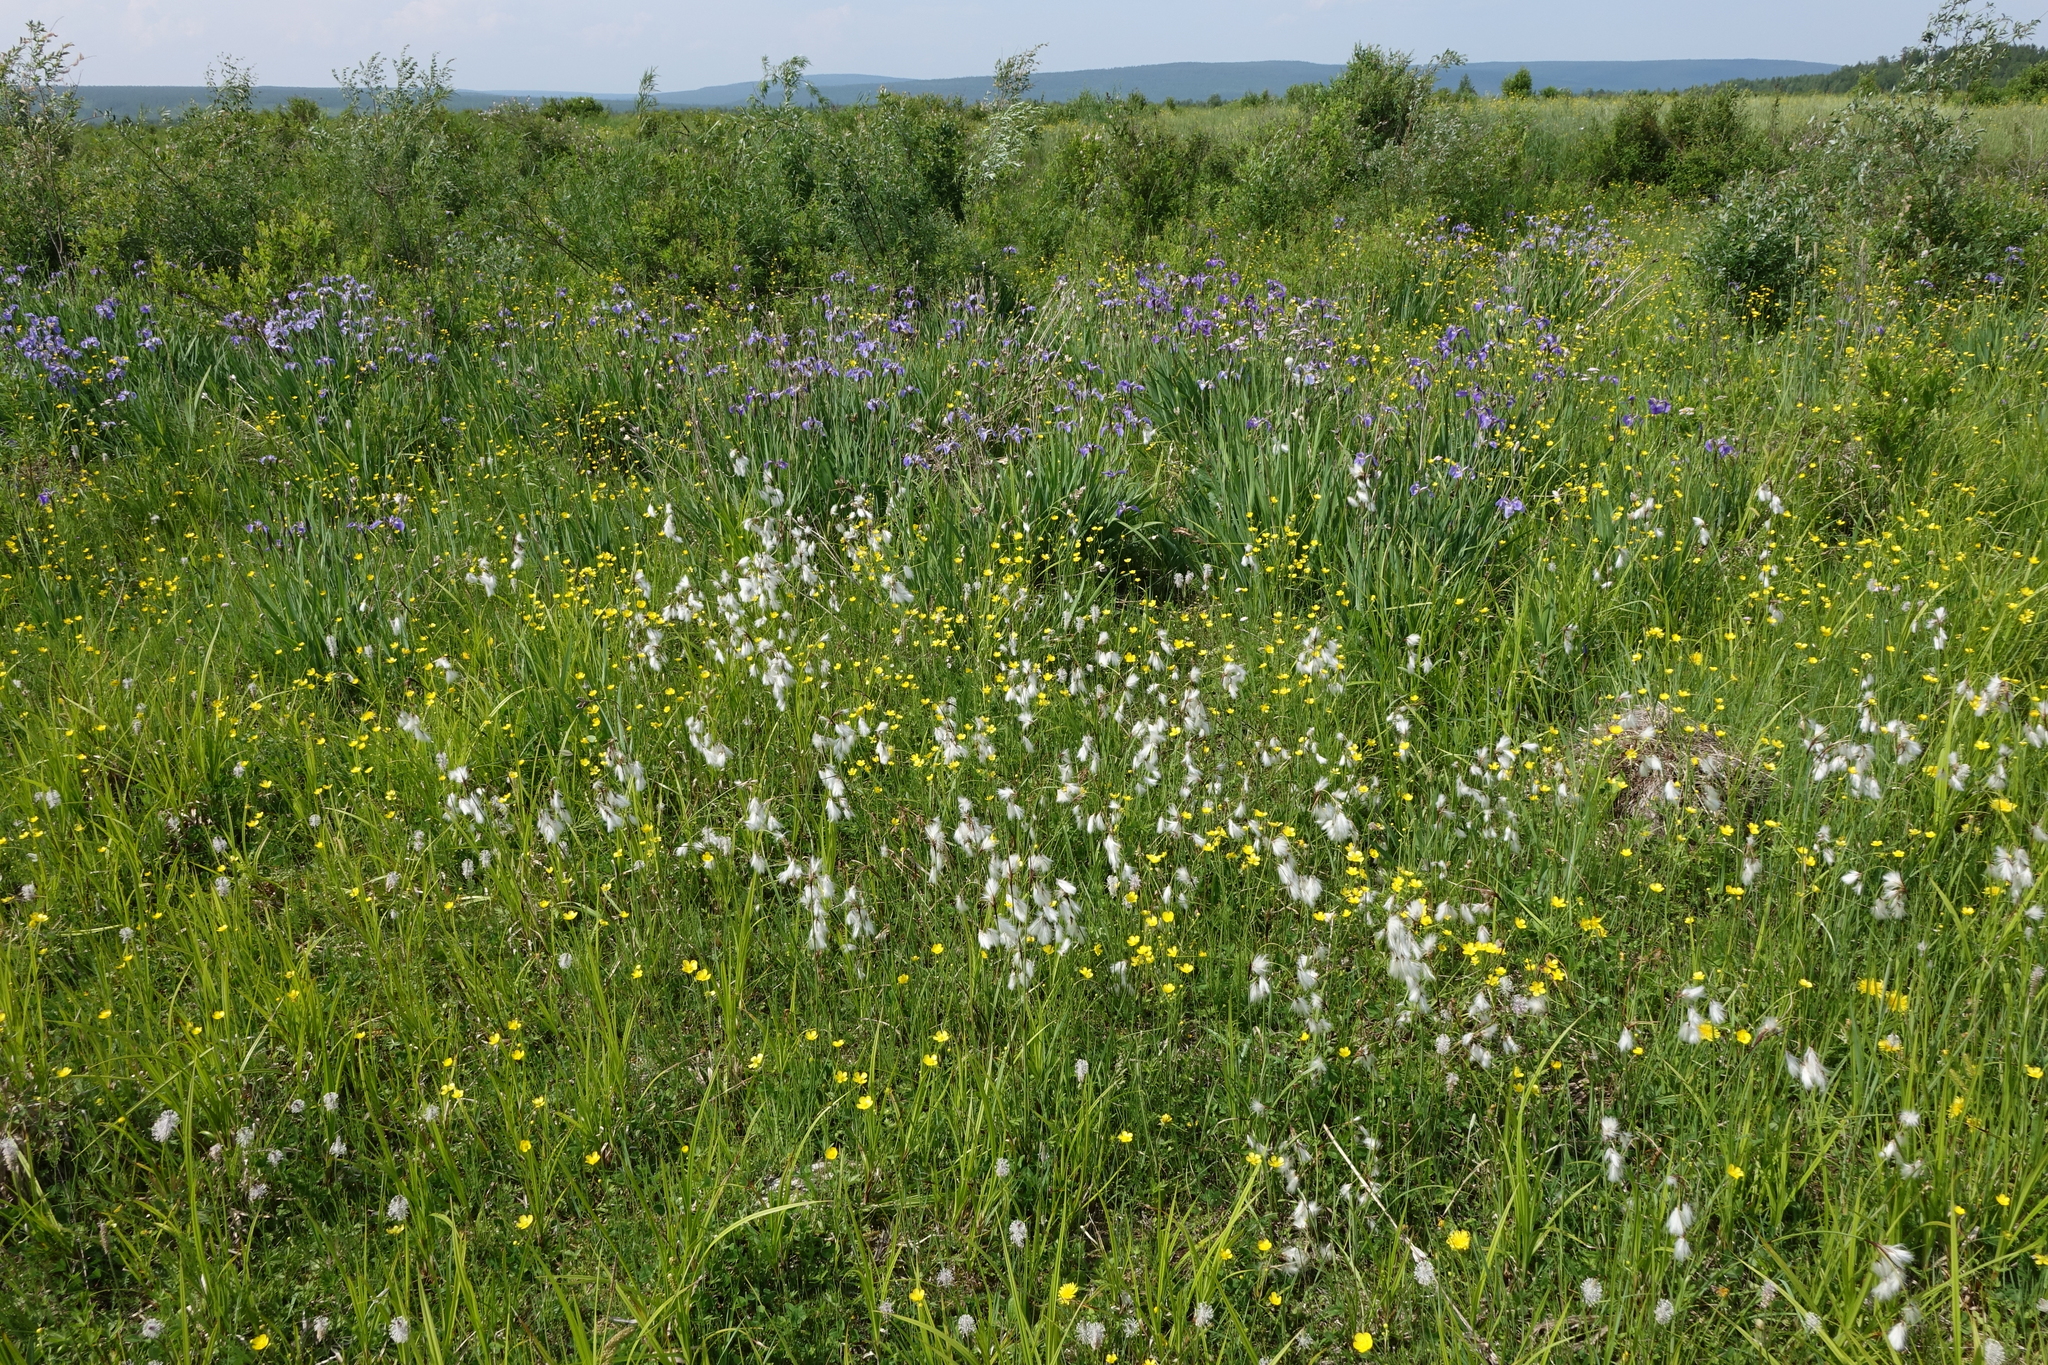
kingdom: Plantae
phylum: Tracheophyta
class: Liliopsida
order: Poales
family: Cyperaceae
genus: Eriophorum
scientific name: Eriophorum angustifolium
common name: Common cottongrass
